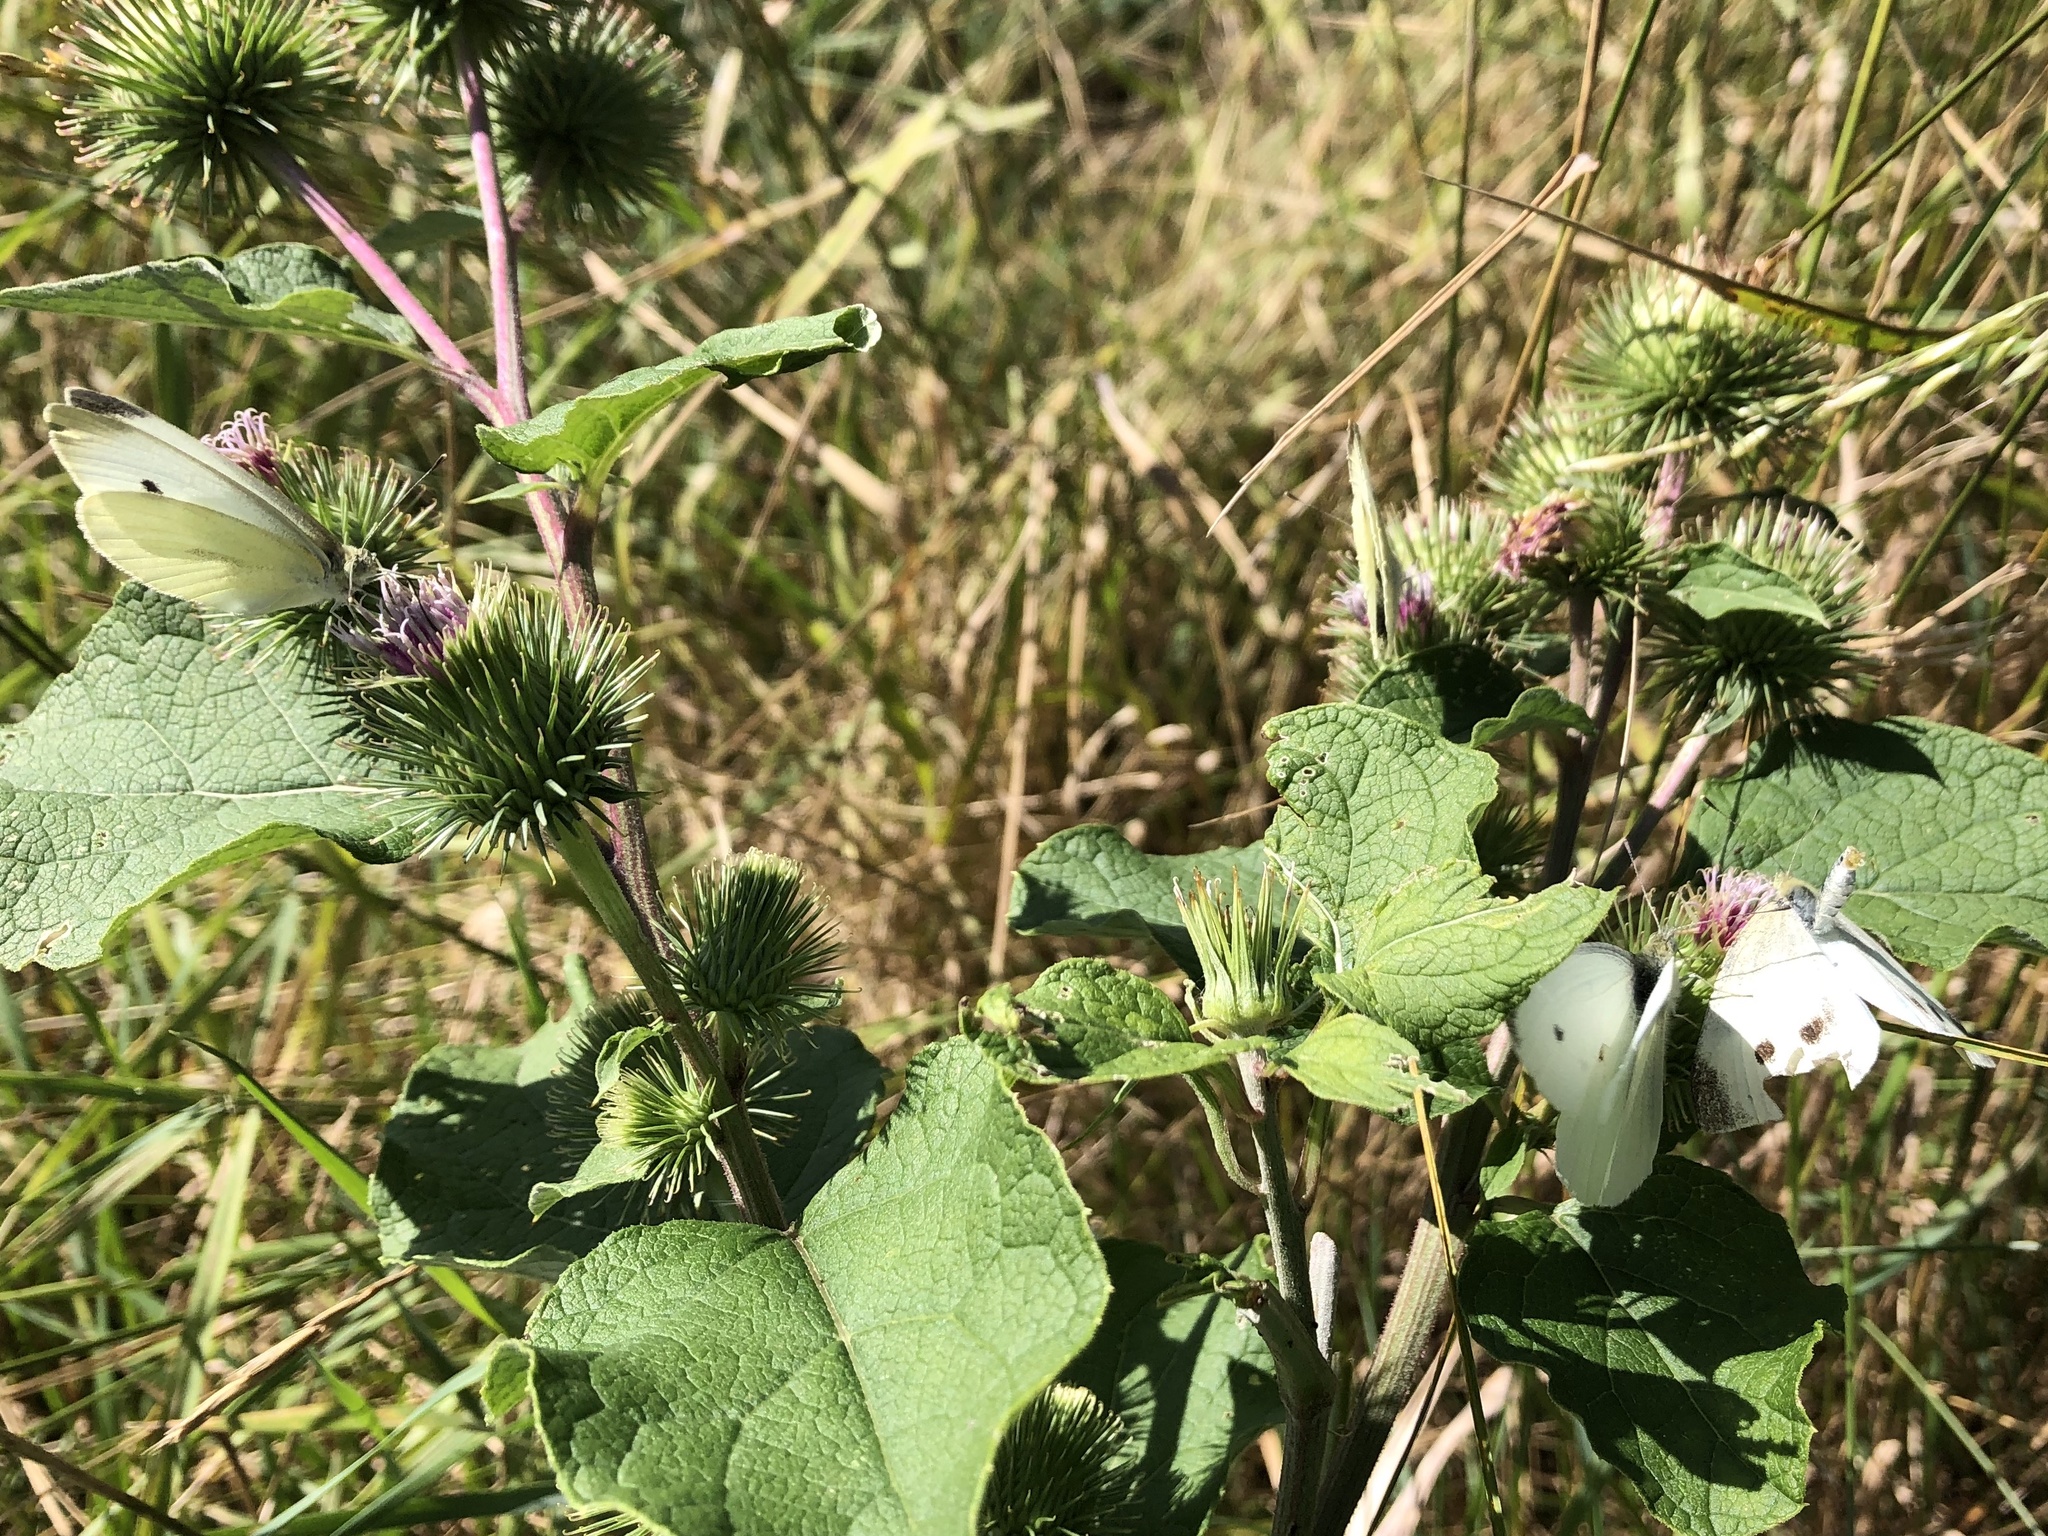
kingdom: Animalia
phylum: Arthropoda
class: Insecta
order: Lepidoptera
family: Pieridae
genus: Pieris
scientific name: Pieris rapae
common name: Small white
